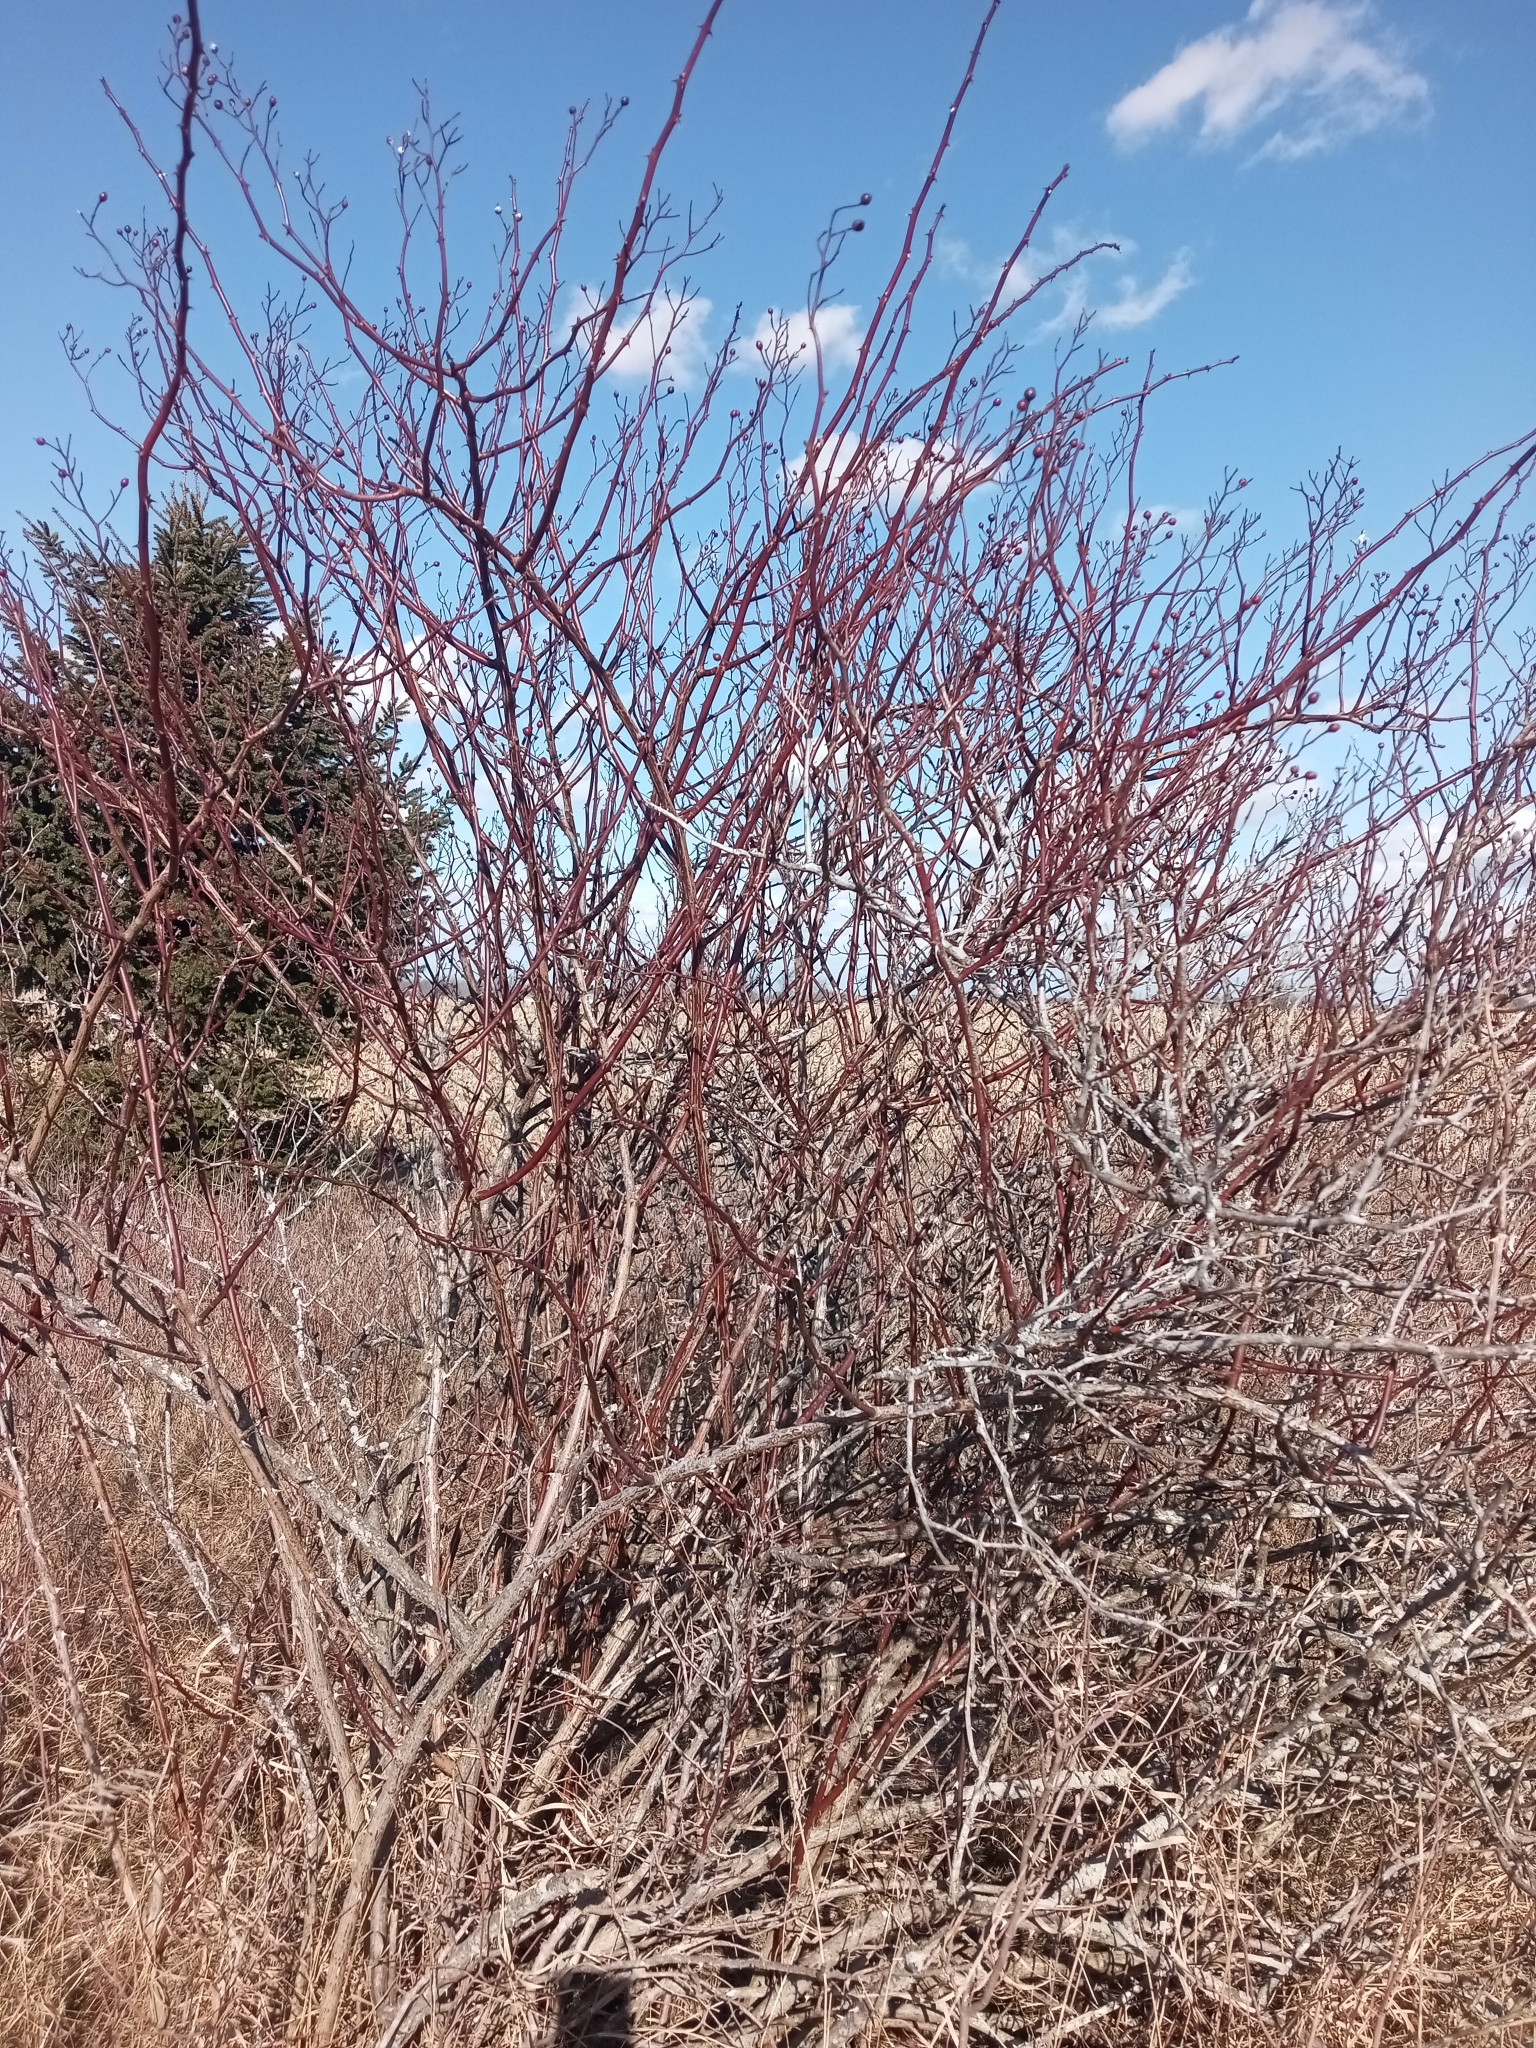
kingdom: Plantae
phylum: Tracheophyta
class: Magnoliopsida
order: Rosales
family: Rosaceae
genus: Rosa
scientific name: Rosa multiflora
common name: Multiflora rose
